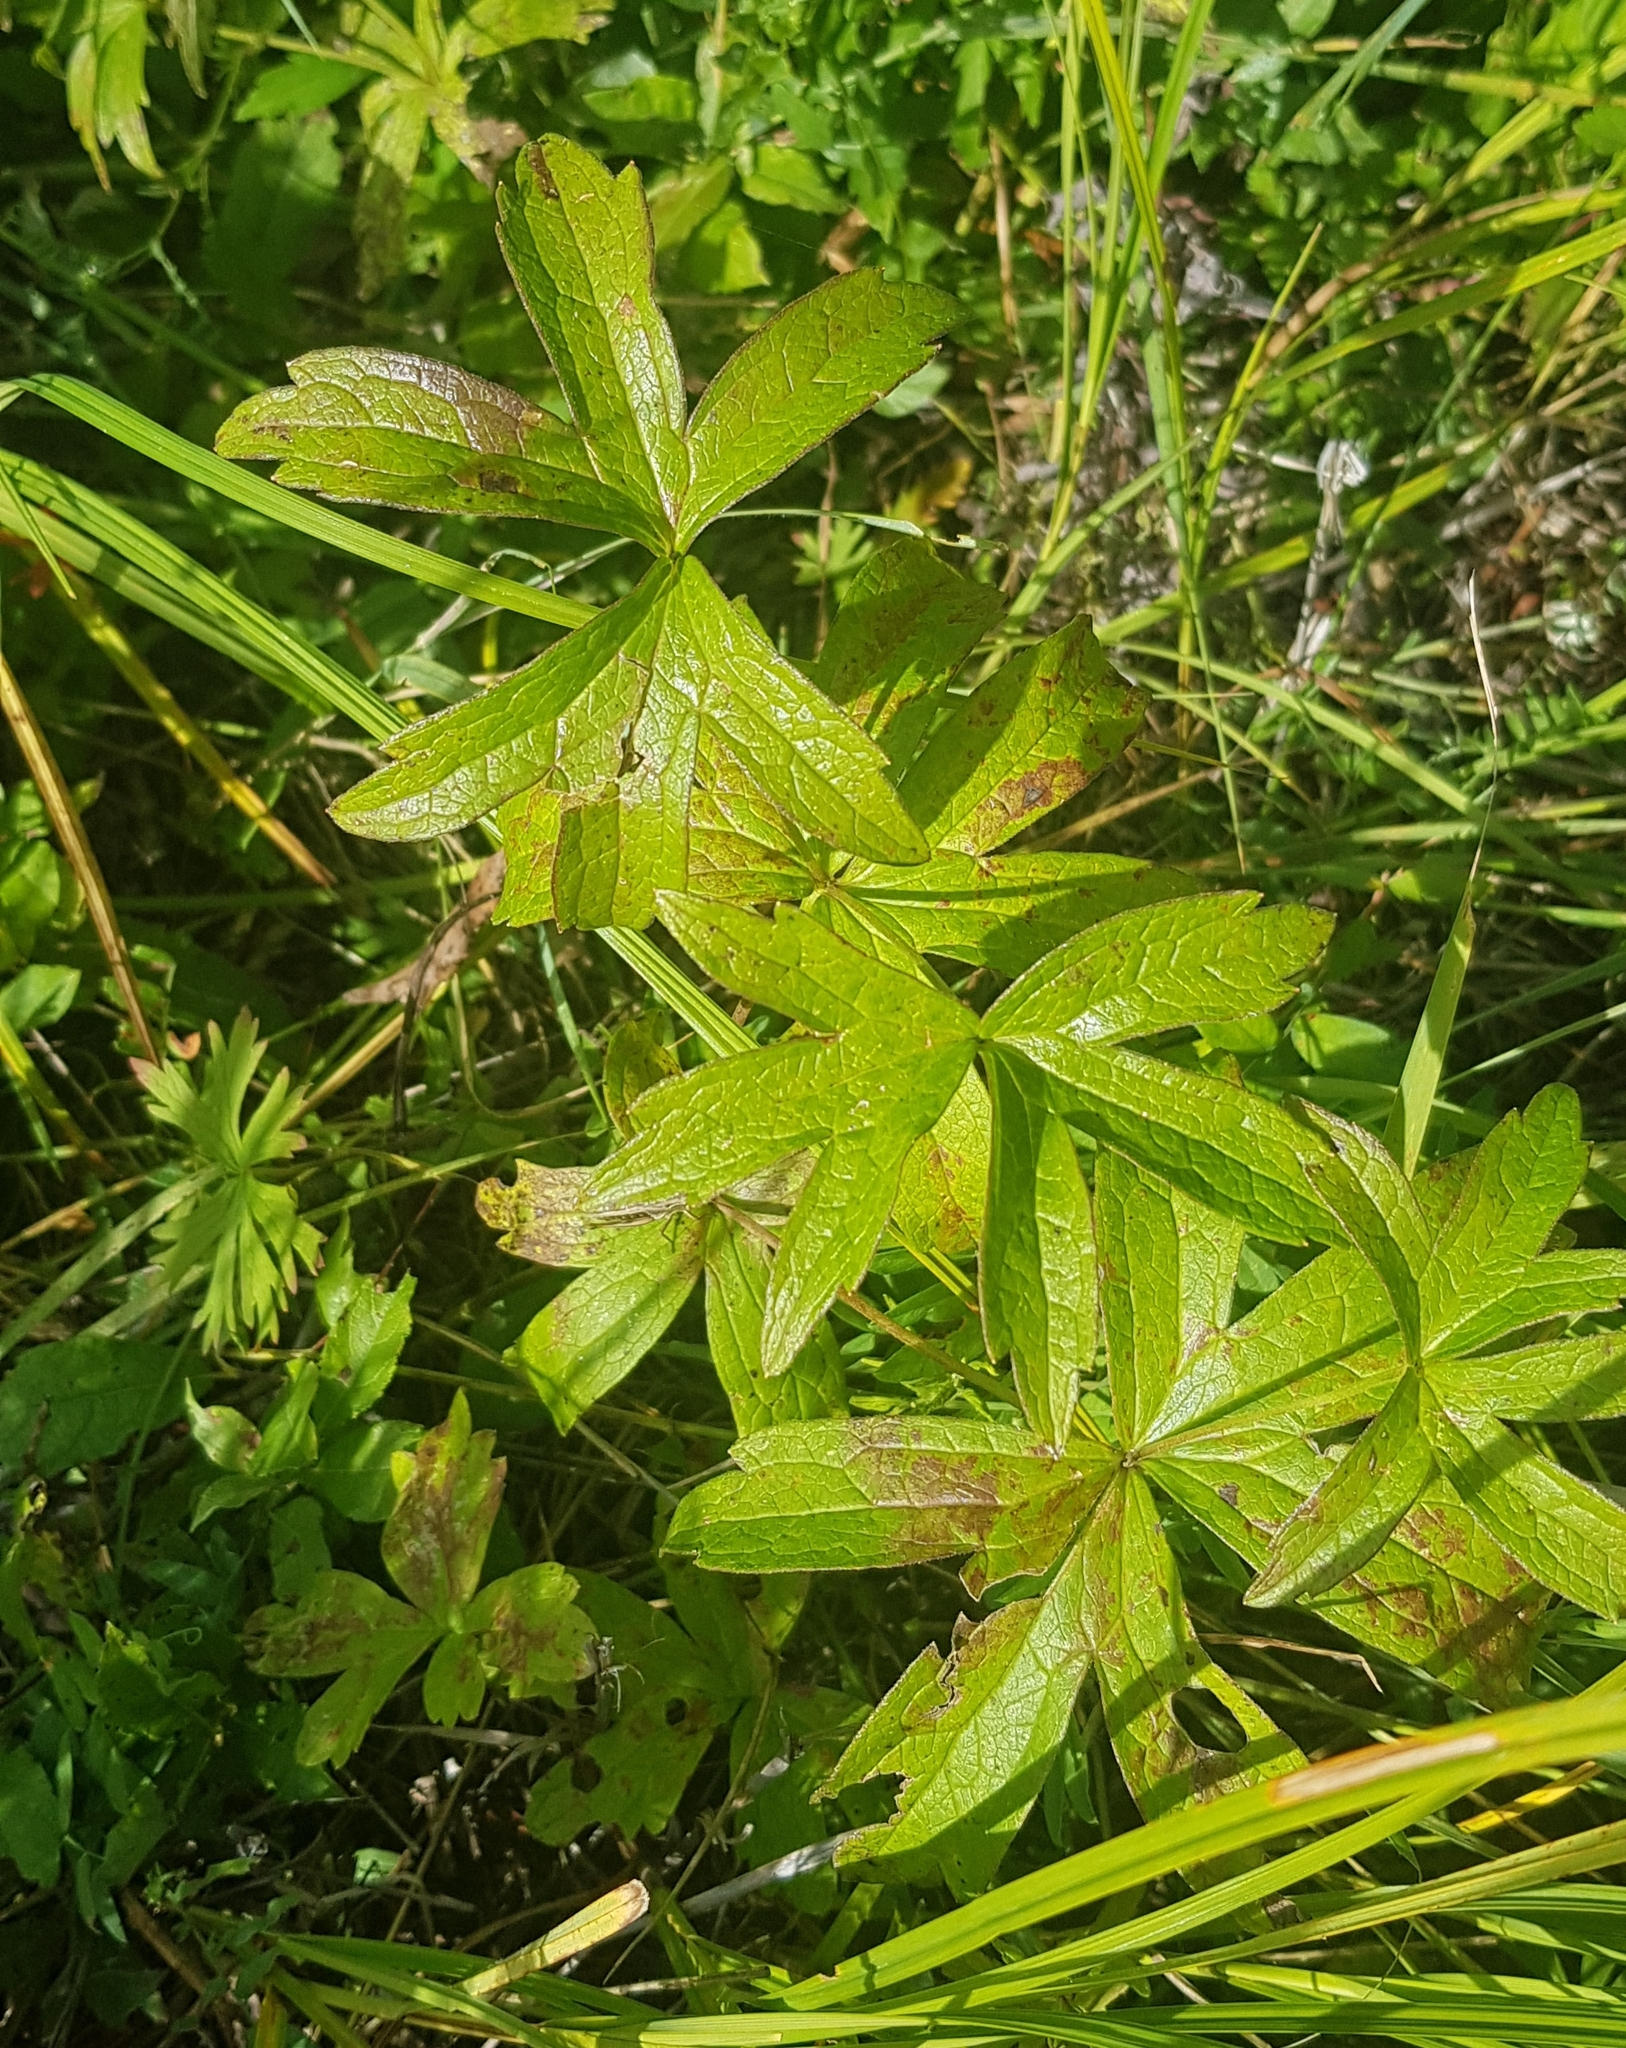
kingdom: Plantae
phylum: Tracheophyta
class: Magnoliopsida
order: Ranunculales
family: Ranunculaceae
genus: Anemonastrum
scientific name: Anemonastrum dichotomum
